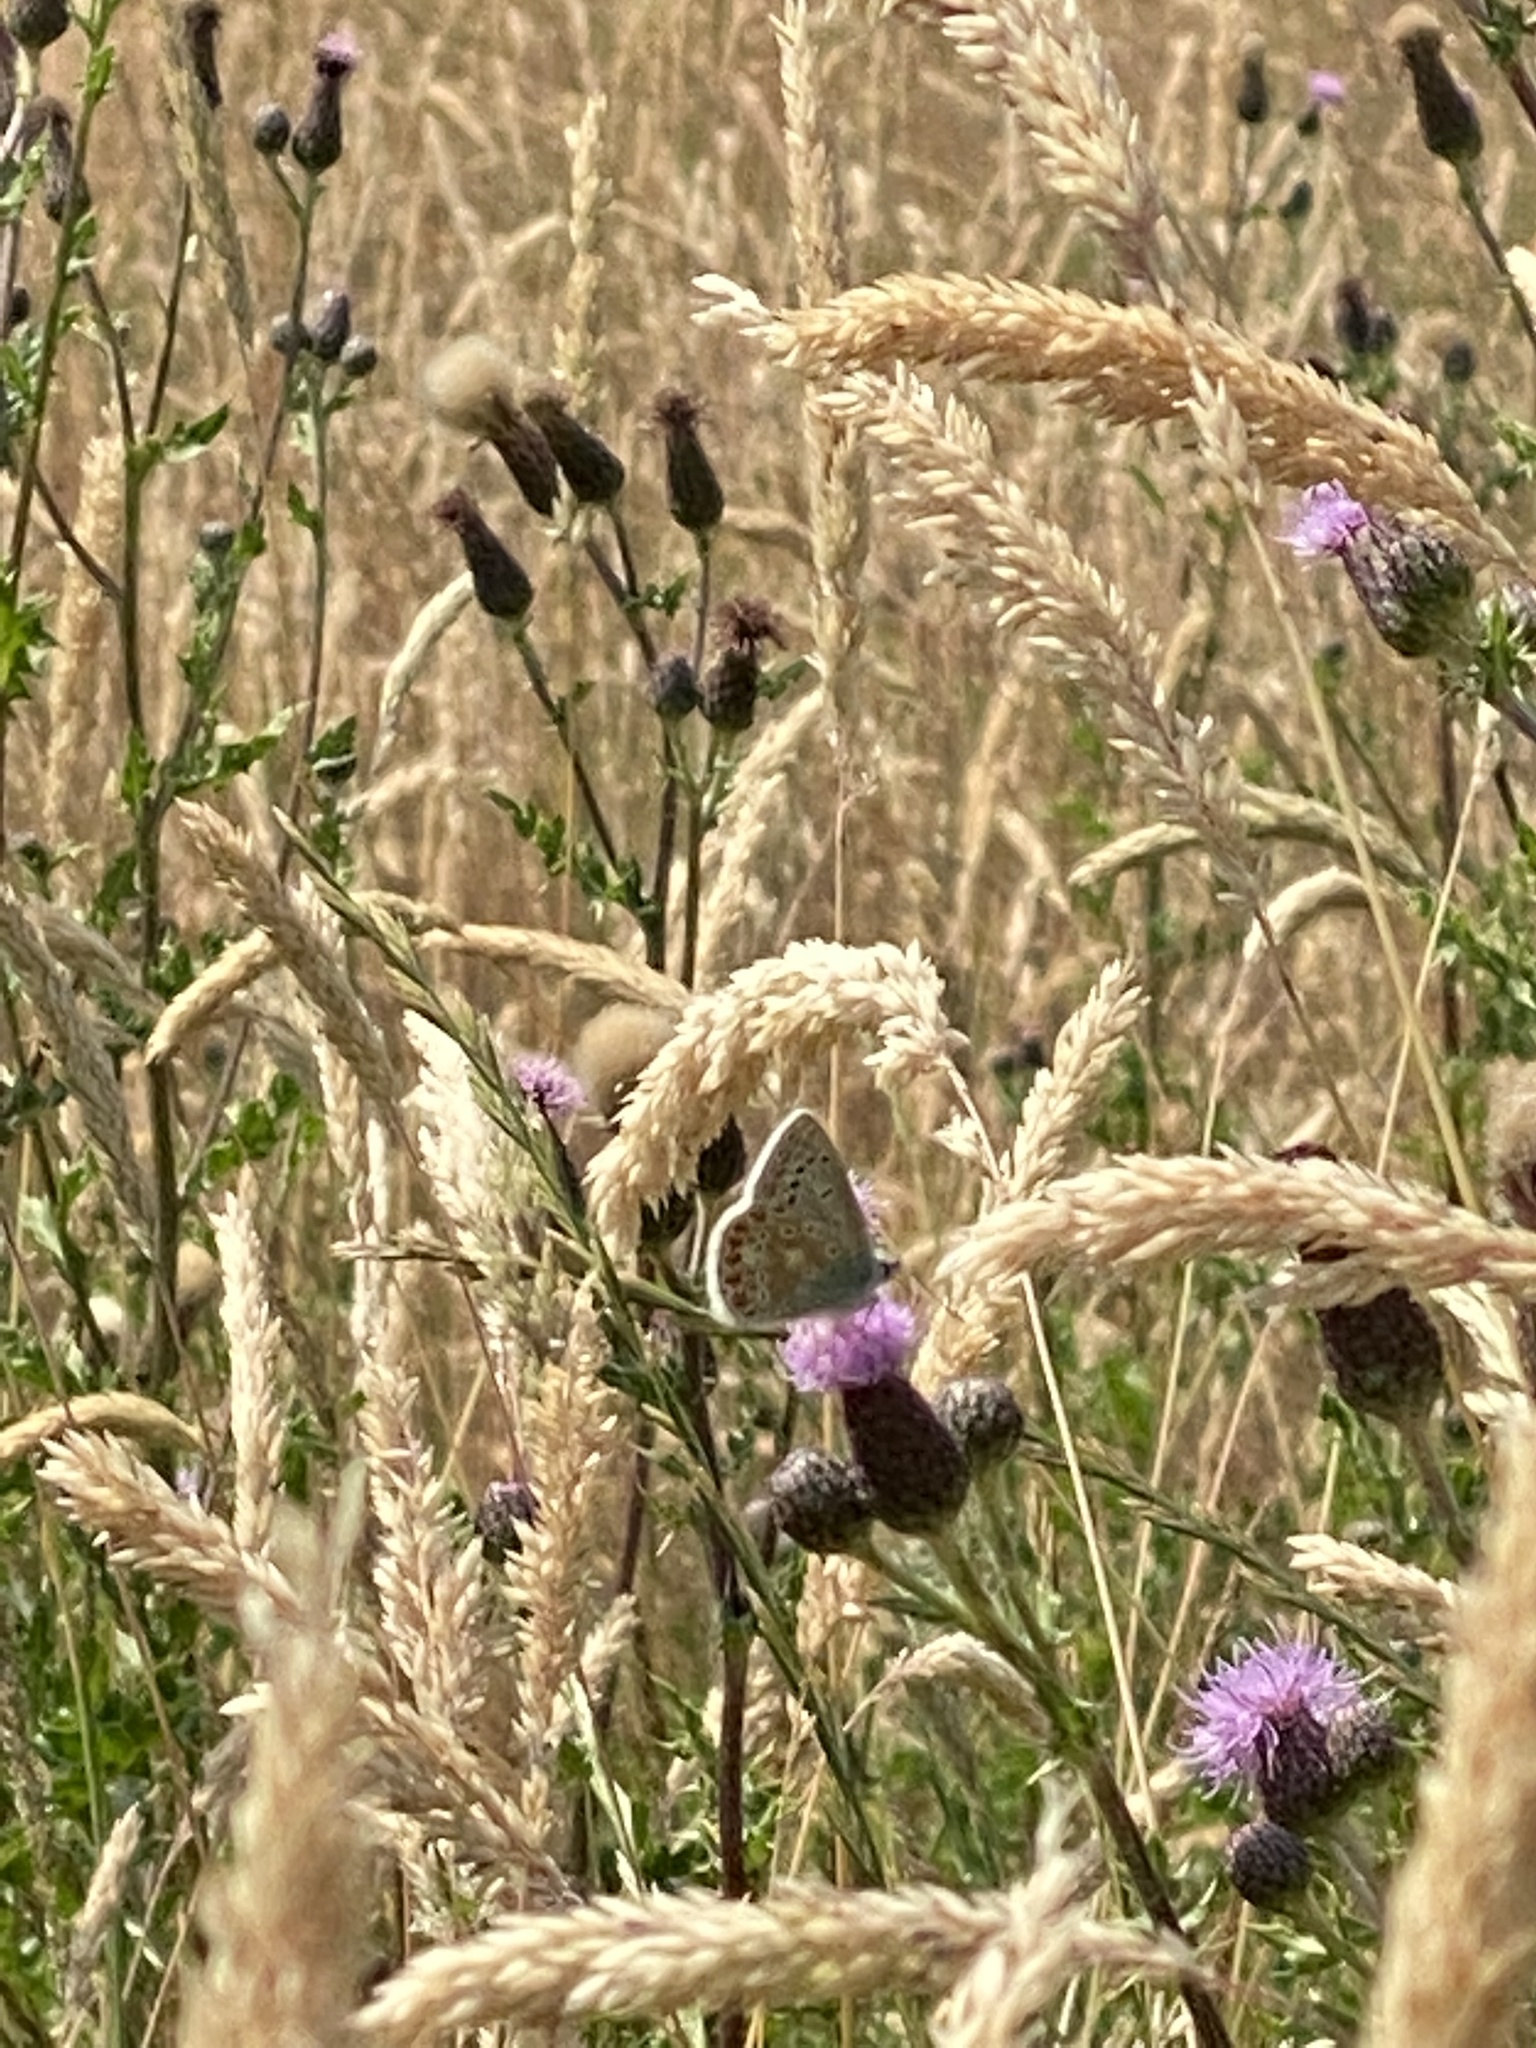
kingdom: Animalia
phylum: Arthropoda
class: Insecta
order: Lepidoptera
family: Lycaenidae
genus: Polyommatus
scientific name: Polyommatus icarus
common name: Common blue
